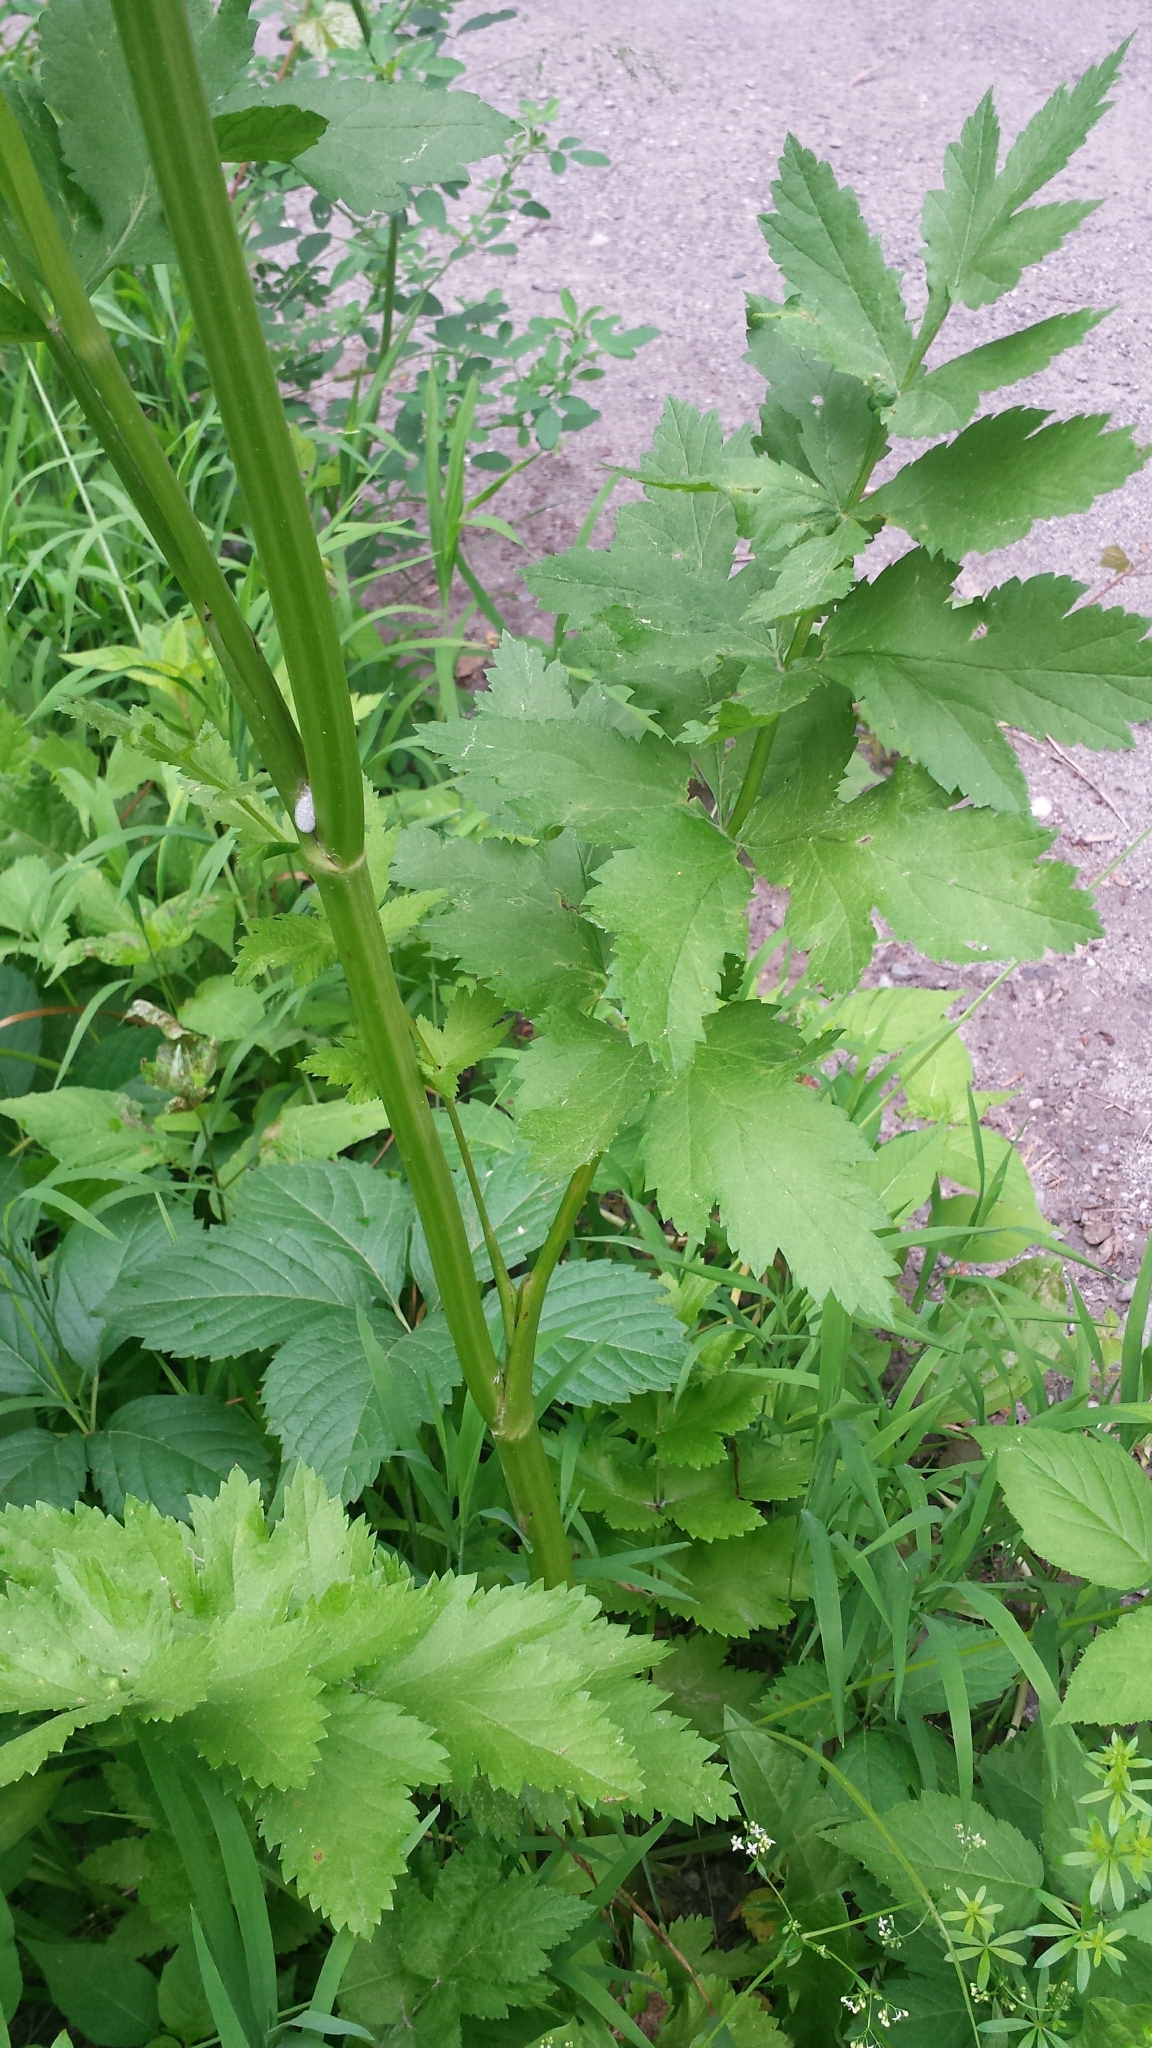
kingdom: Plantae
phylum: Tracheophyta
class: Magnoliopsida
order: Apiales
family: Apiaceae
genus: Pastinaca
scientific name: Pastinaca sativa
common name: Wild parsnip
